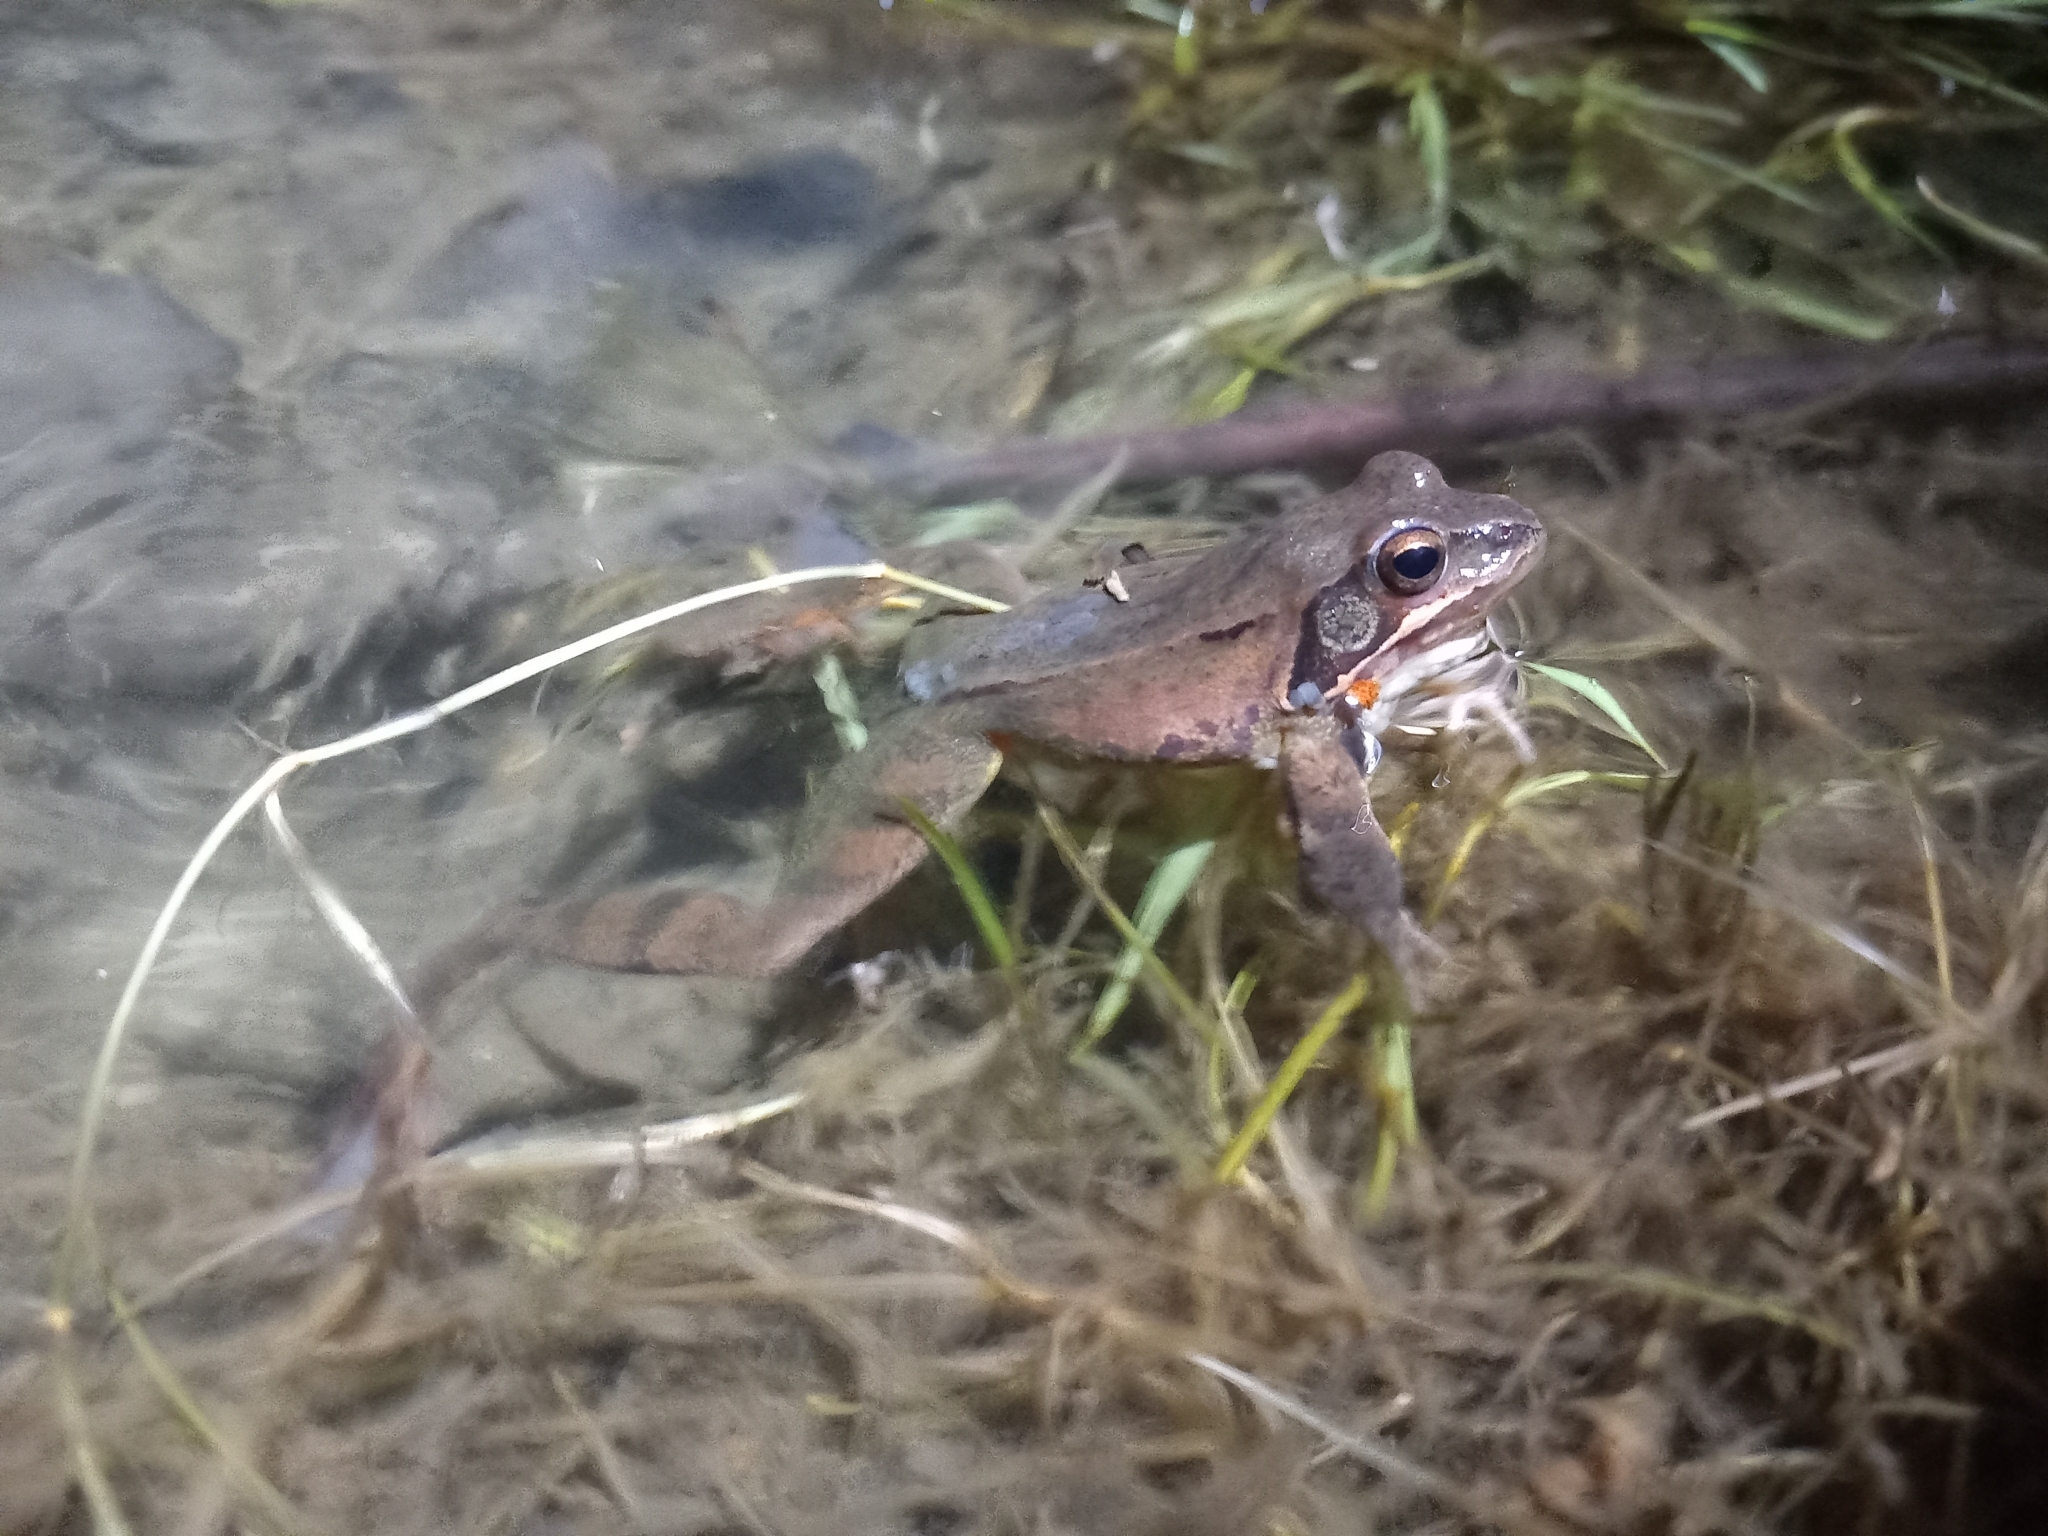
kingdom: Animalia
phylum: Chordata
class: Amphibia
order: Anura
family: Ranidae
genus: Rana
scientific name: Rana dalmatina
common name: Agile frog
